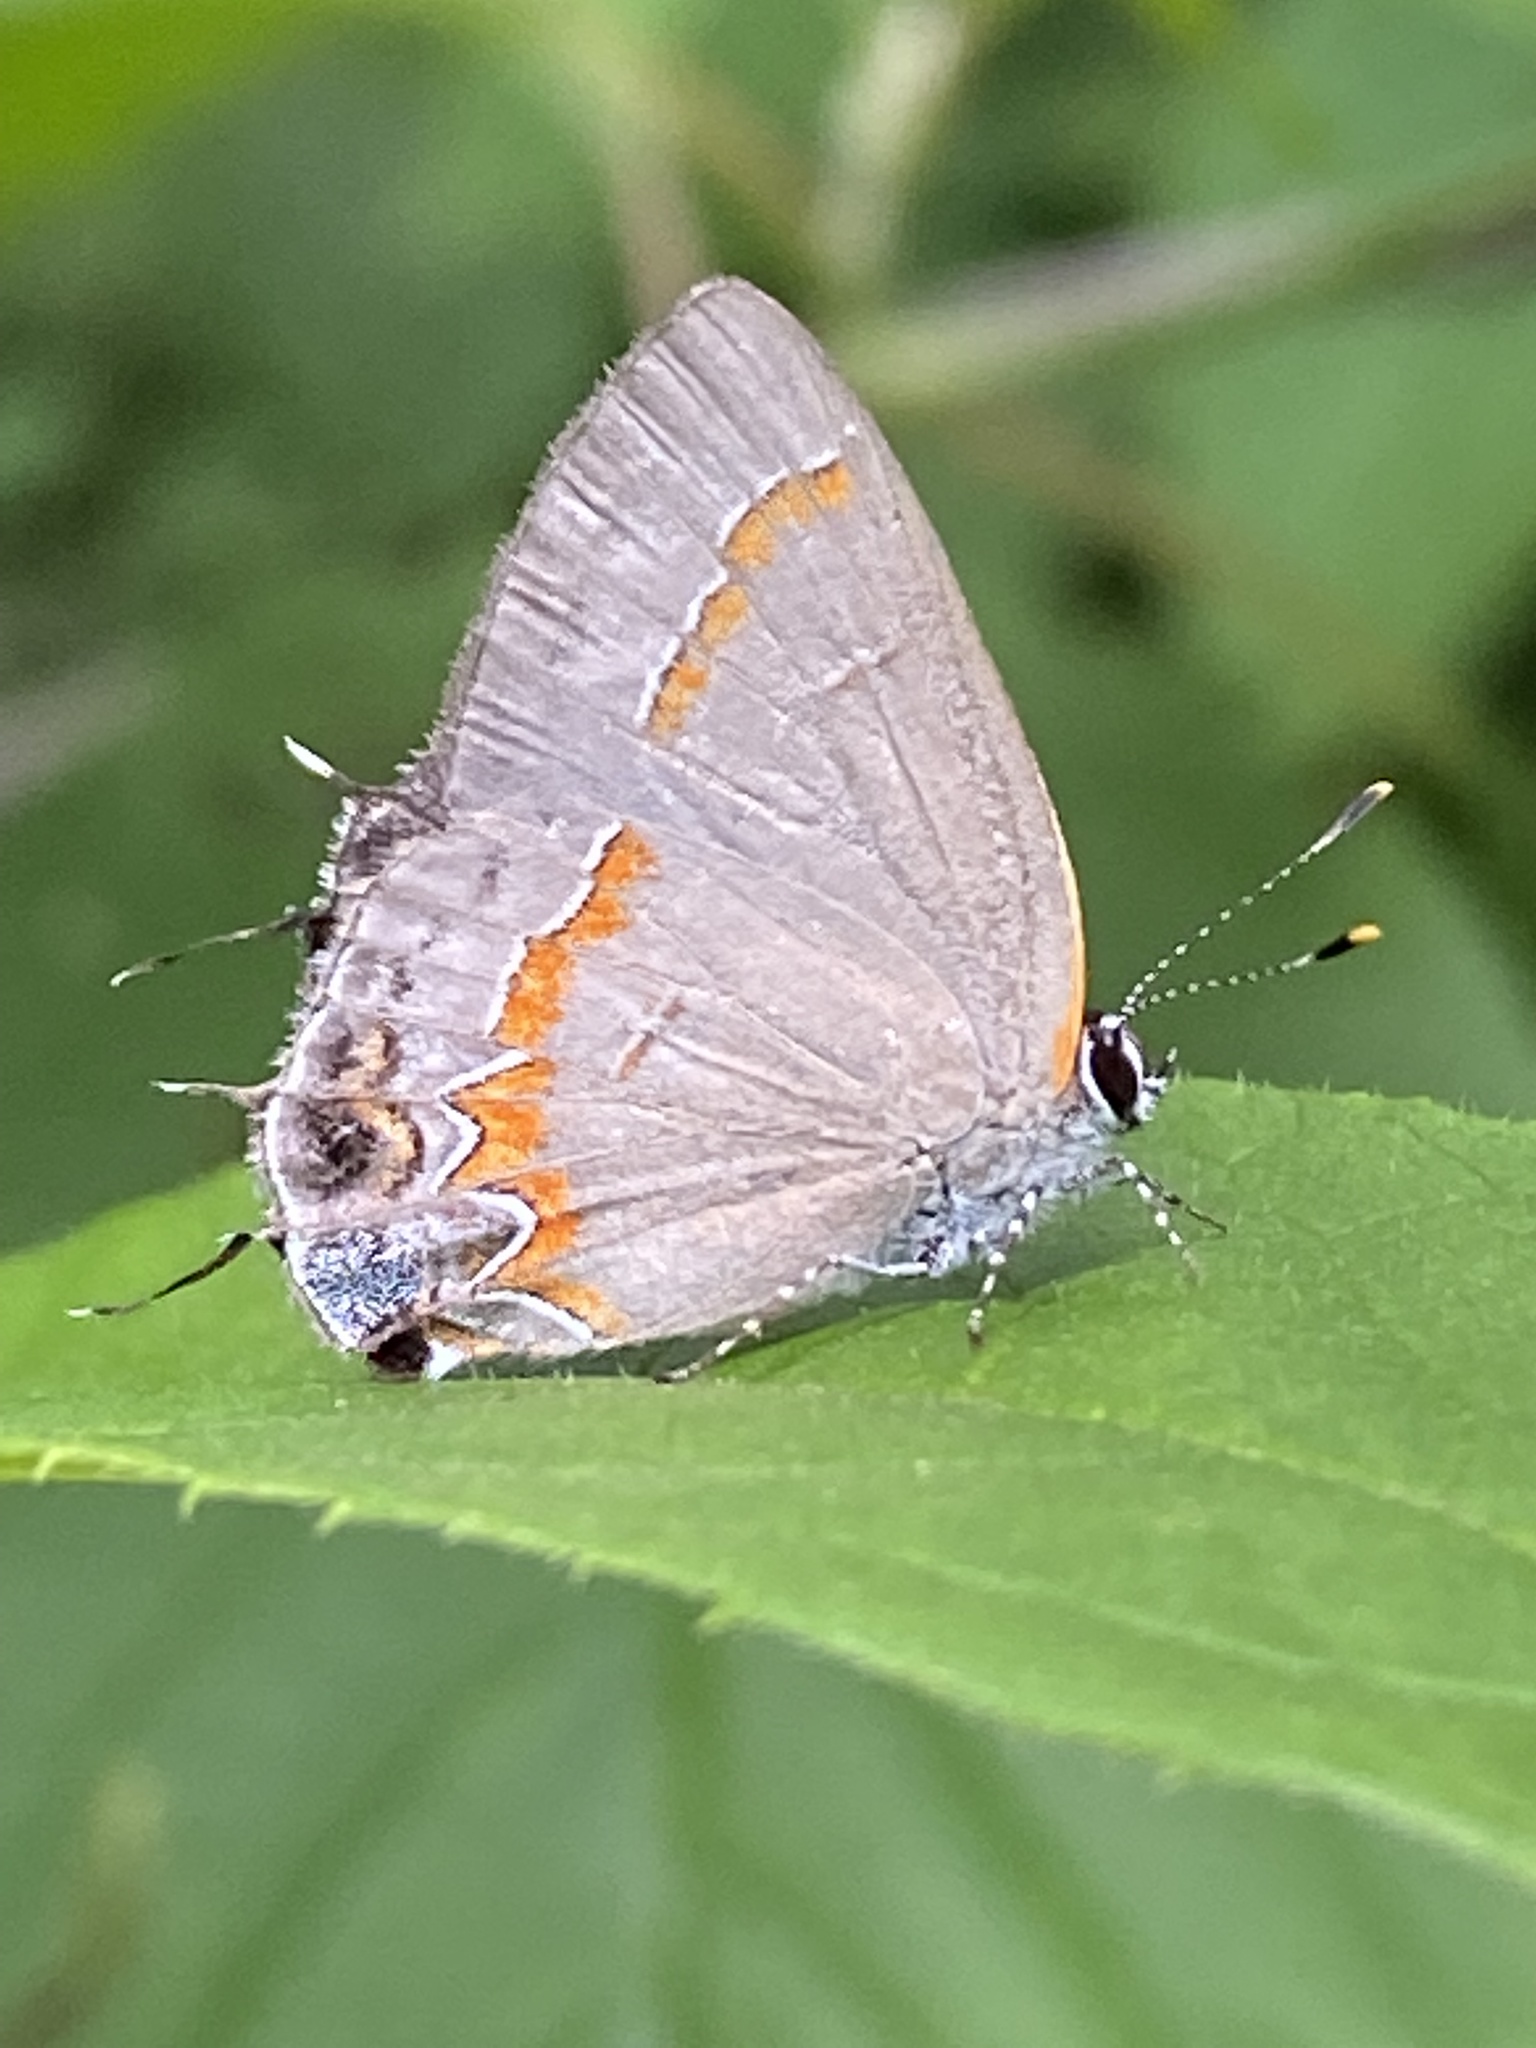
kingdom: Animalia
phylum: Arthropoda
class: Insecta
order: Lepidoptera
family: Lycaenidae
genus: Calycopis
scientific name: Calycopis cecrops
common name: Red-banded hairstreak
